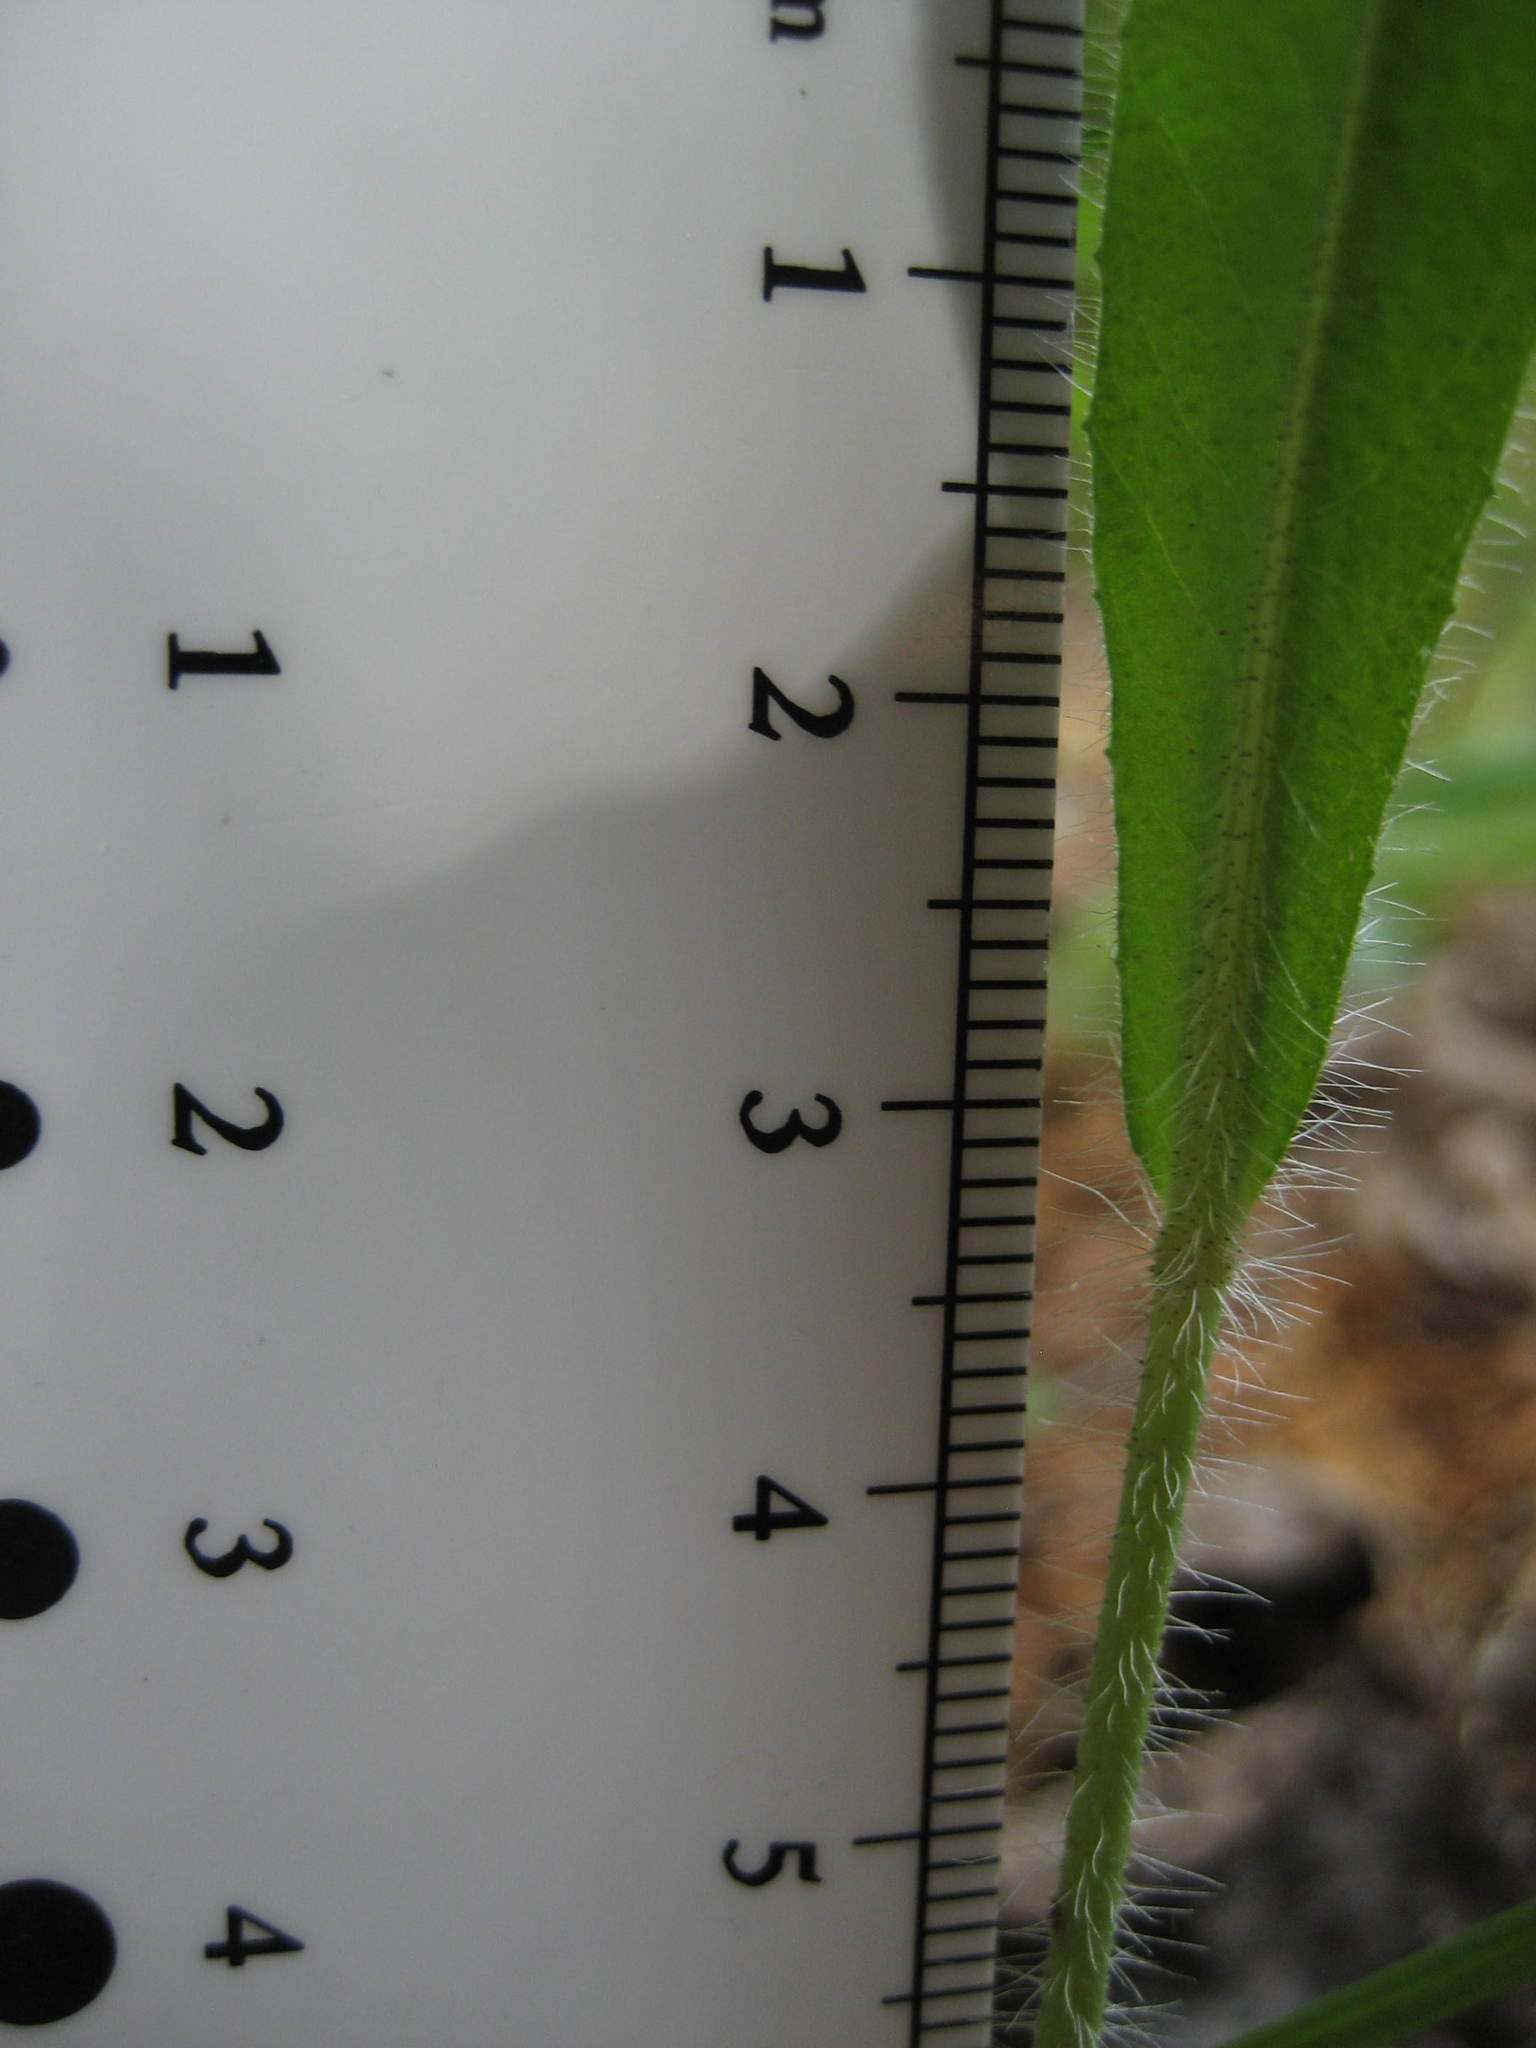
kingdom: Plantae
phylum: Tracheophyta
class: Magnoliopsida
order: Asterales
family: Asteraceae
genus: Pilosella
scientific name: Pilosella aurantiaca
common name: Fox-and-cubs
